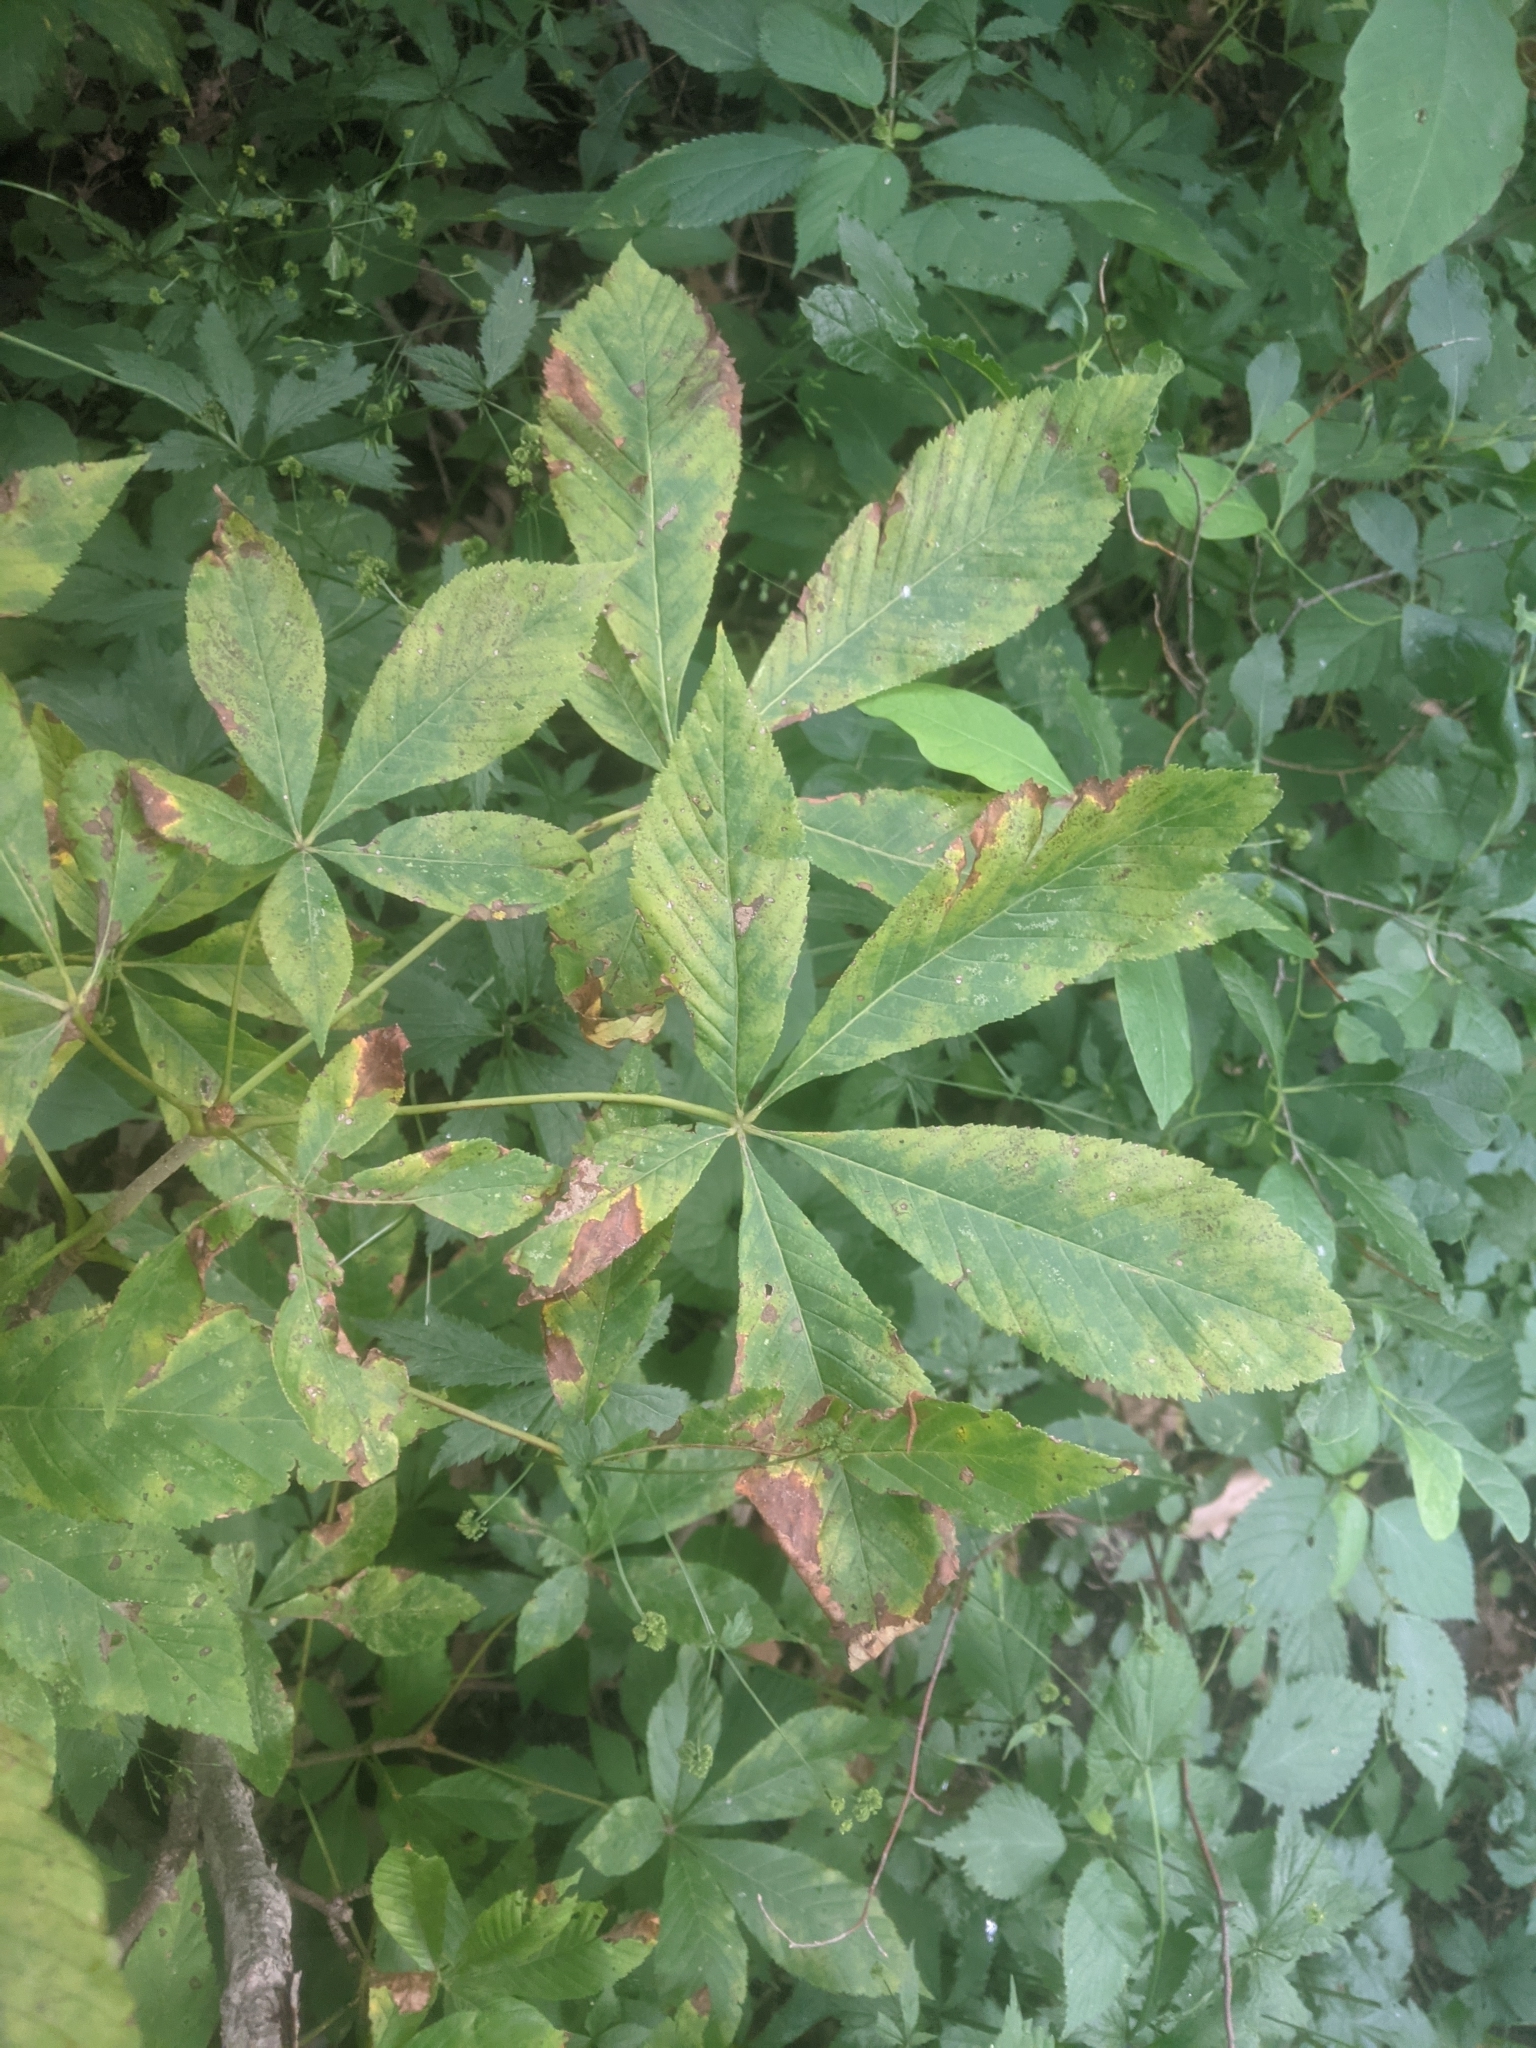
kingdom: Plantae
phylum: Tracheophyta
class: Magnoliopsida
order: Sapindales
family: Sapindaceae
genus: Aesculus
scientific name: Aesculus glabra
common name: Ohio buckeye
